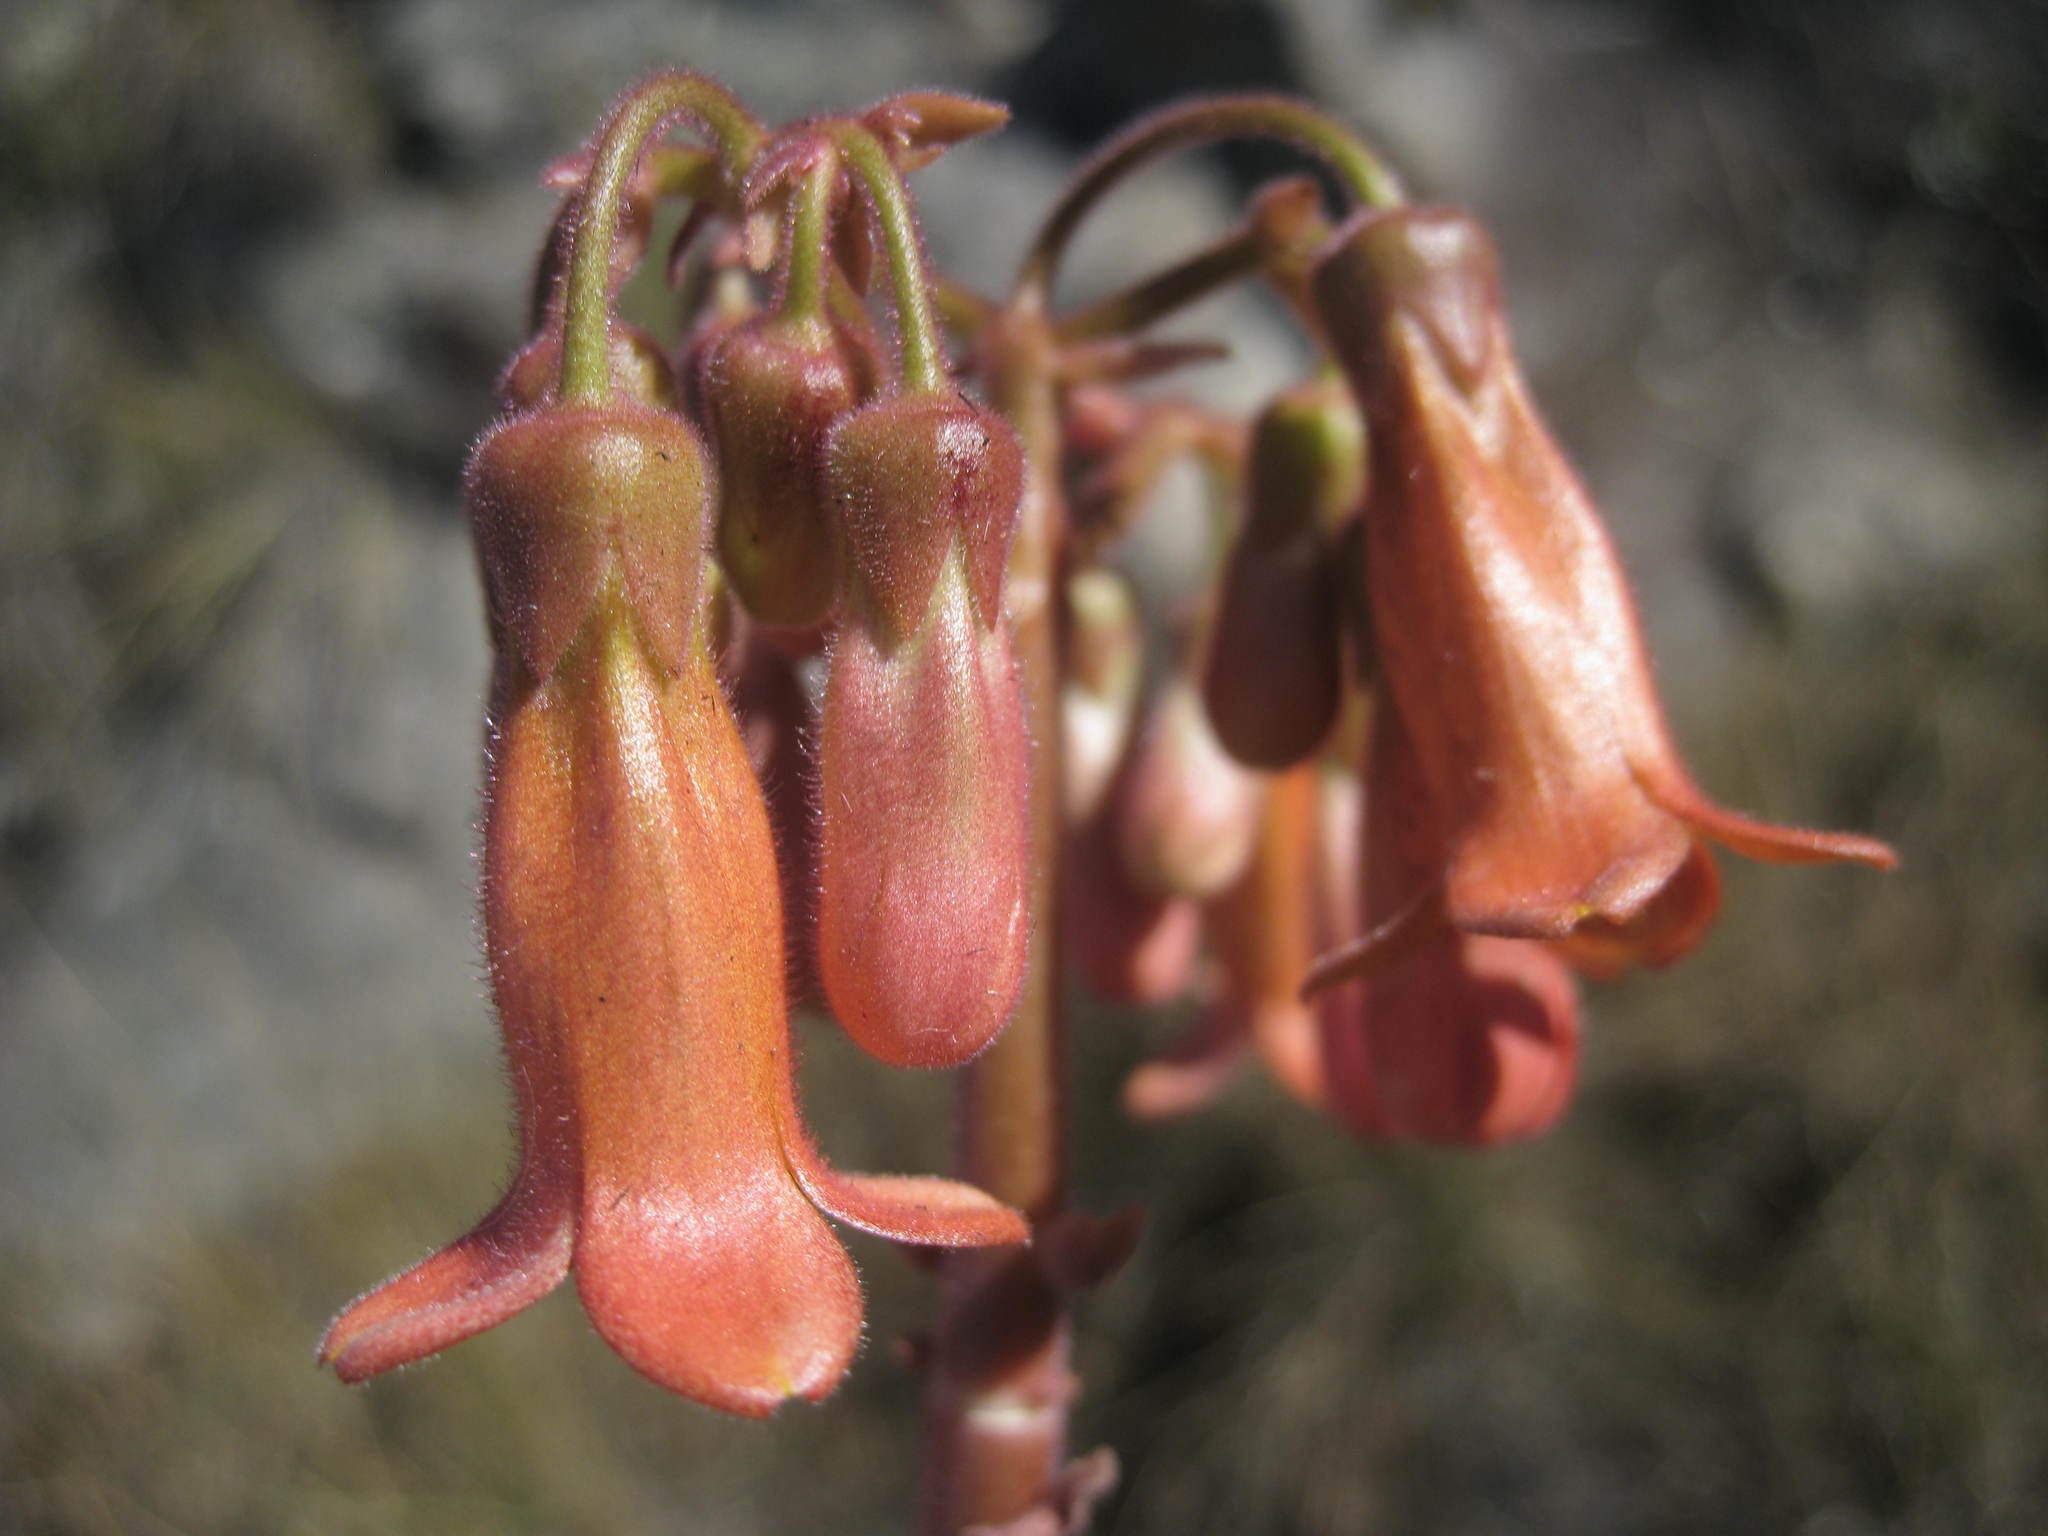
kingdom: Plantae
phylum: Tracheophyta
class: Magnoliopsida
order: Saxifragales
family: Crassulaceae
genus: Kalanchoe
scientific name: Kalanchoe pubescens
